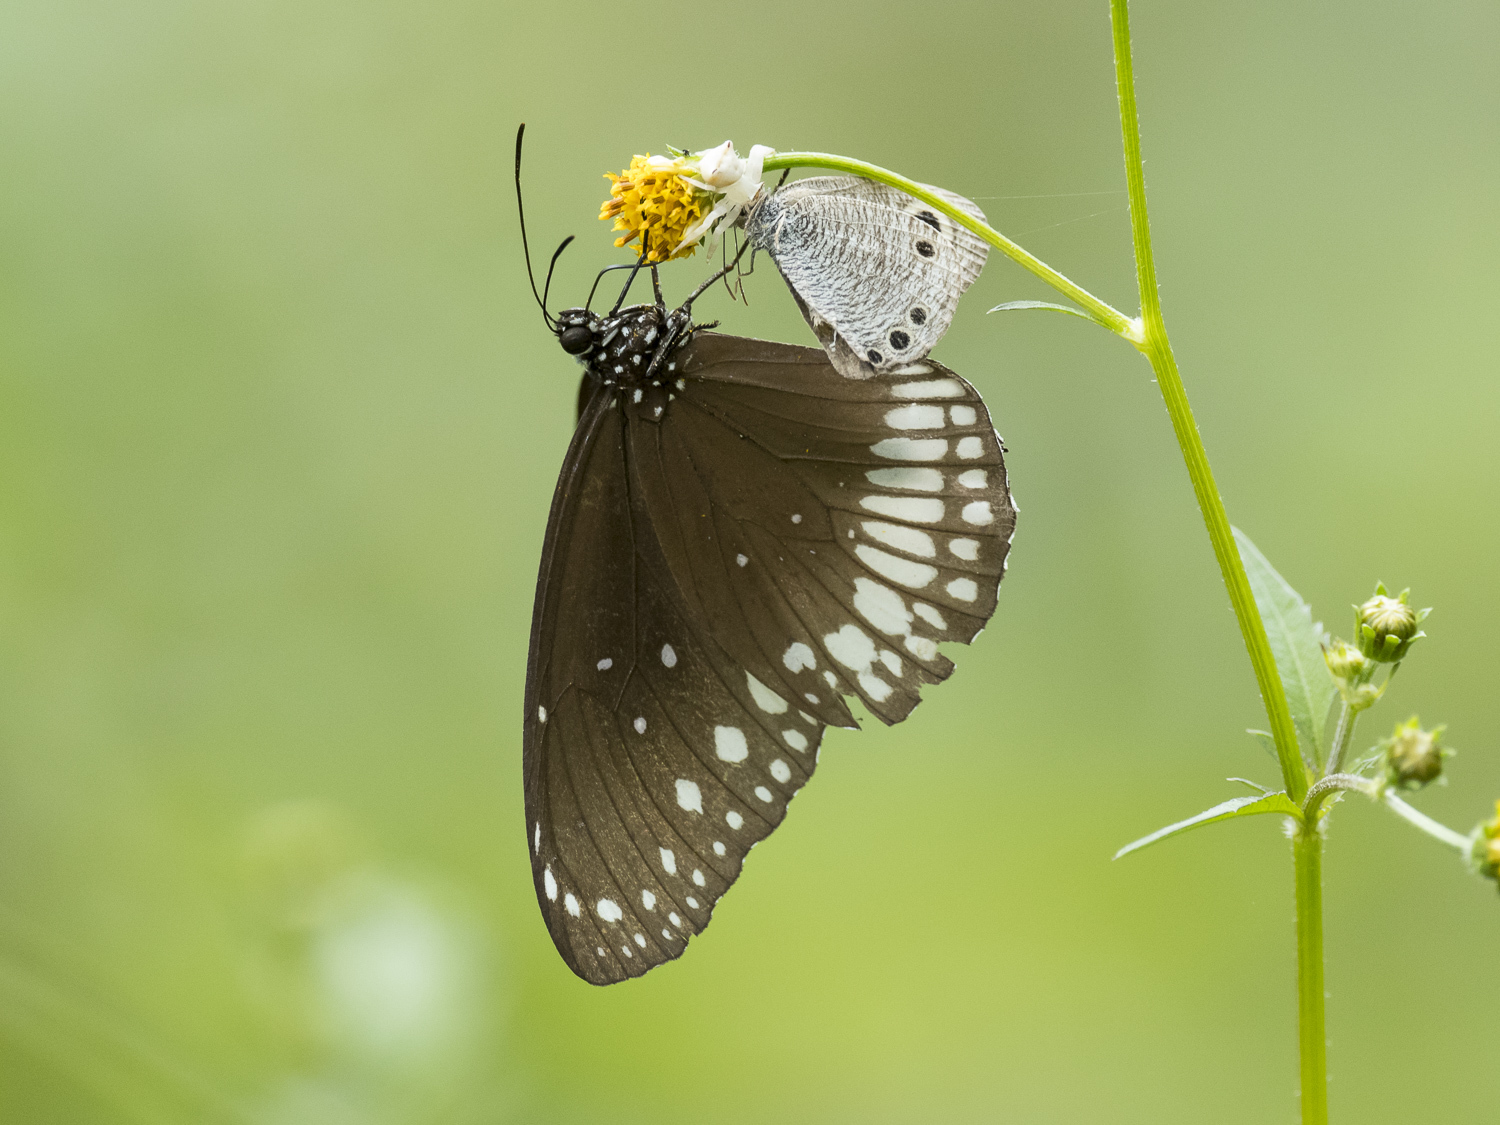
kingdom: Animalia
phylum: Arthropoda
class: Insecta
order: Lepidoptera
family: Nymphalidae
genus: Euploea
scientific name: Euploea core
